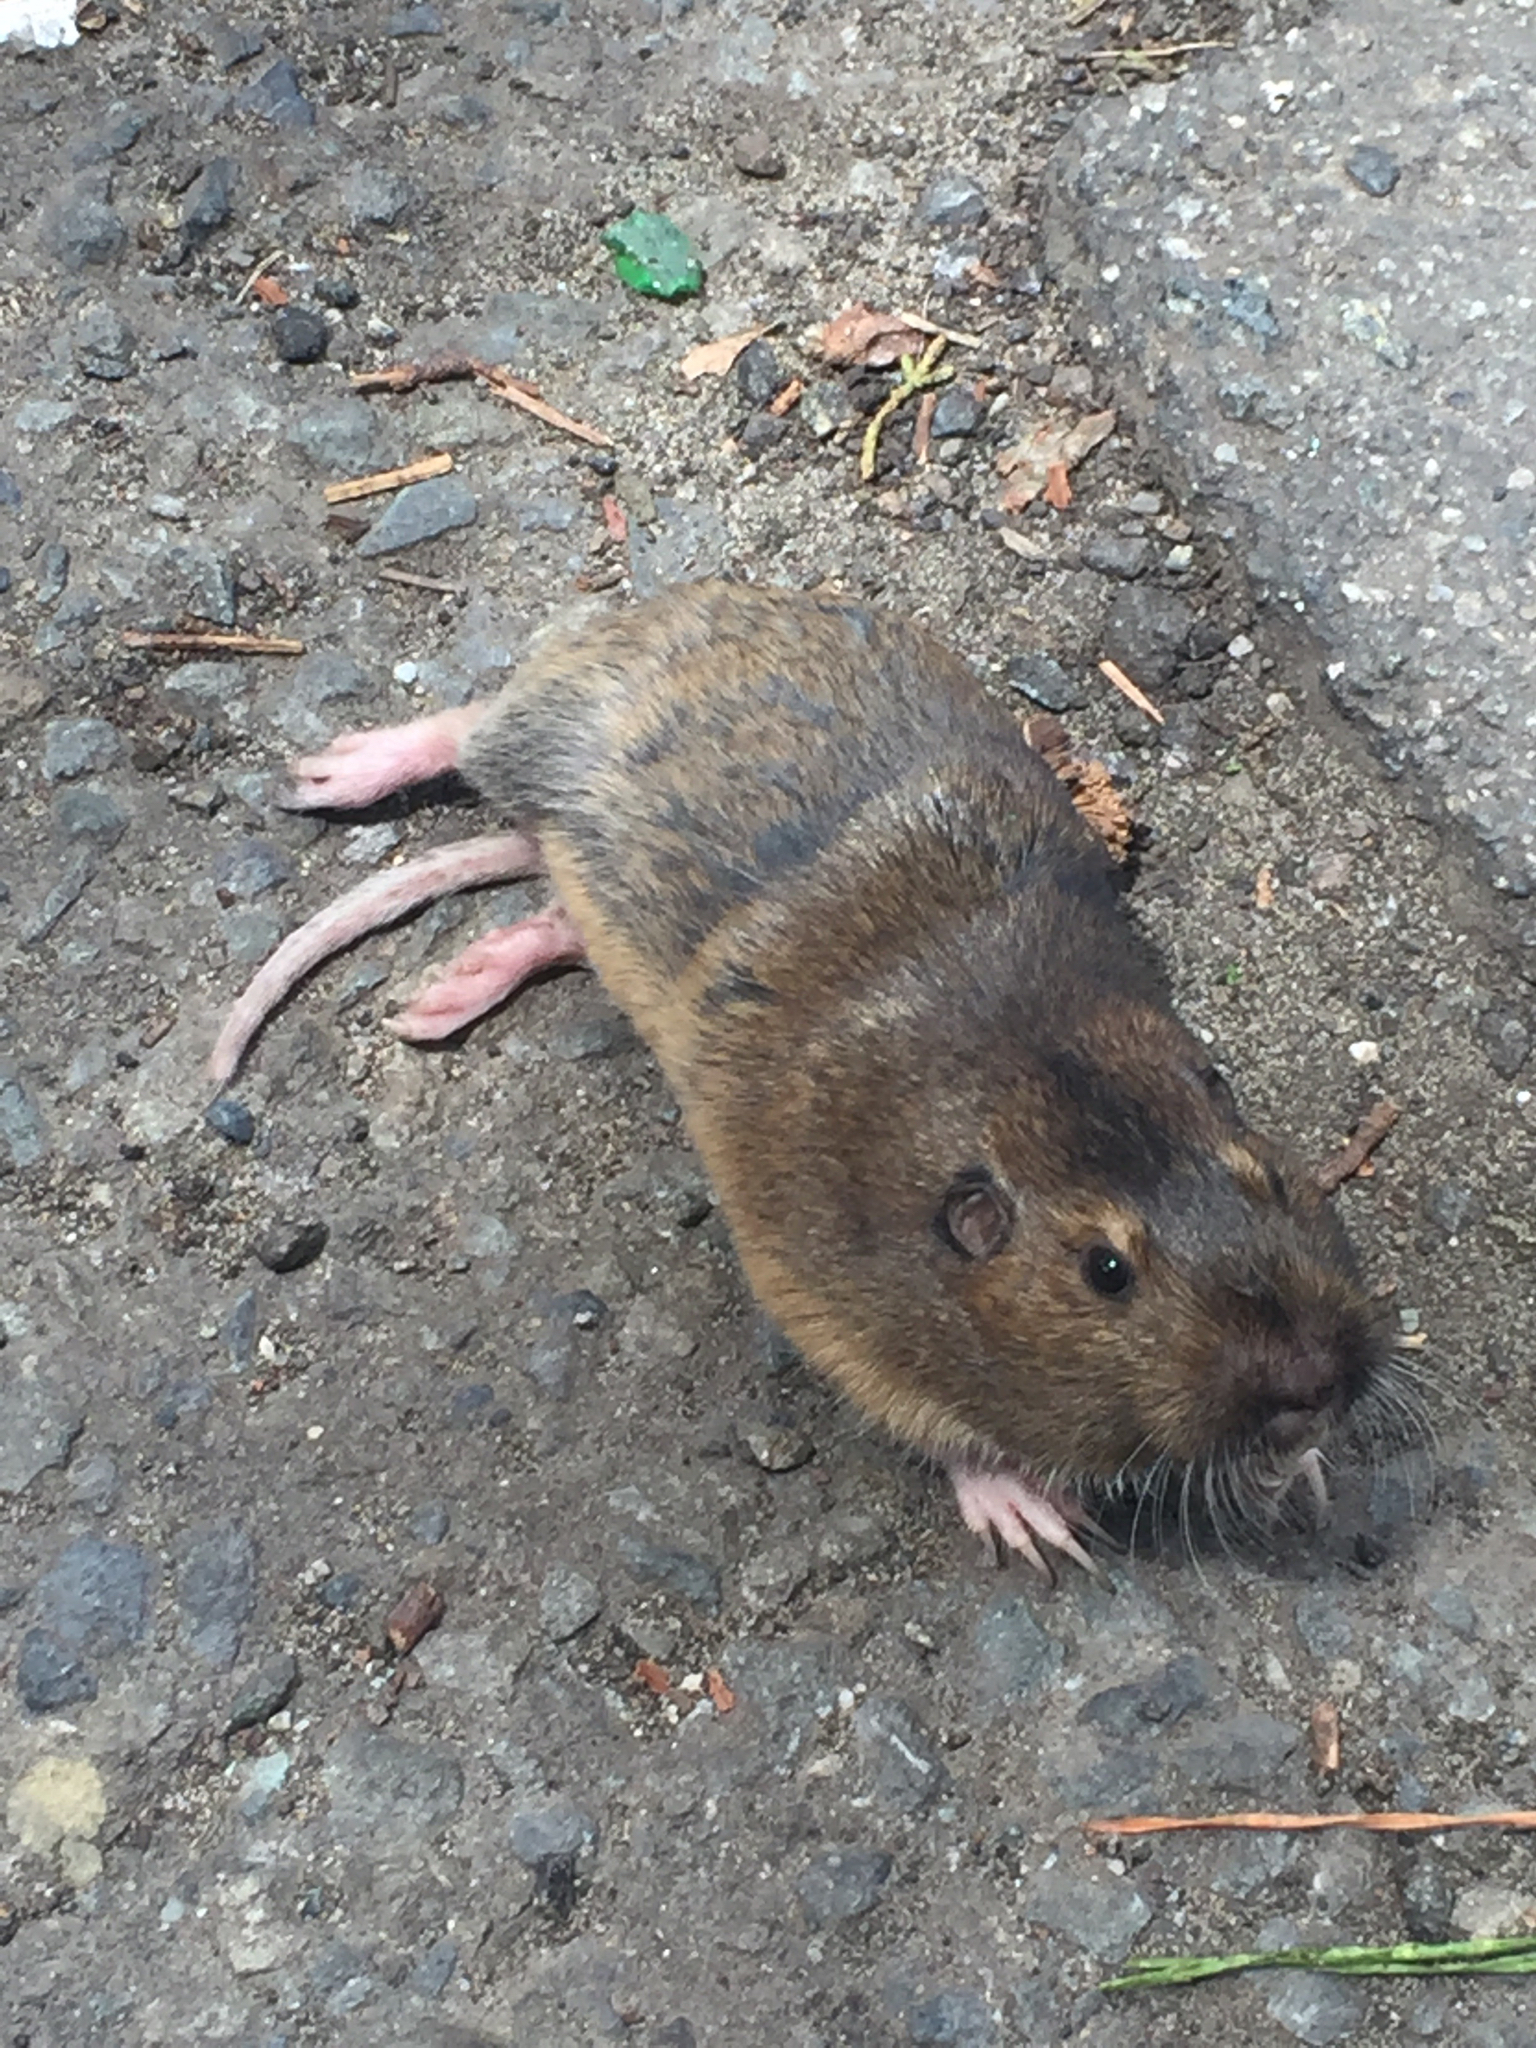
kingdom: Animalia
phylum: Chordata
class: Mammalia
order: Rodentia
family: Geomyidae
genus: Thomomys
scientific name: Thomomys bottae
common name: Botta's pocket gopher
